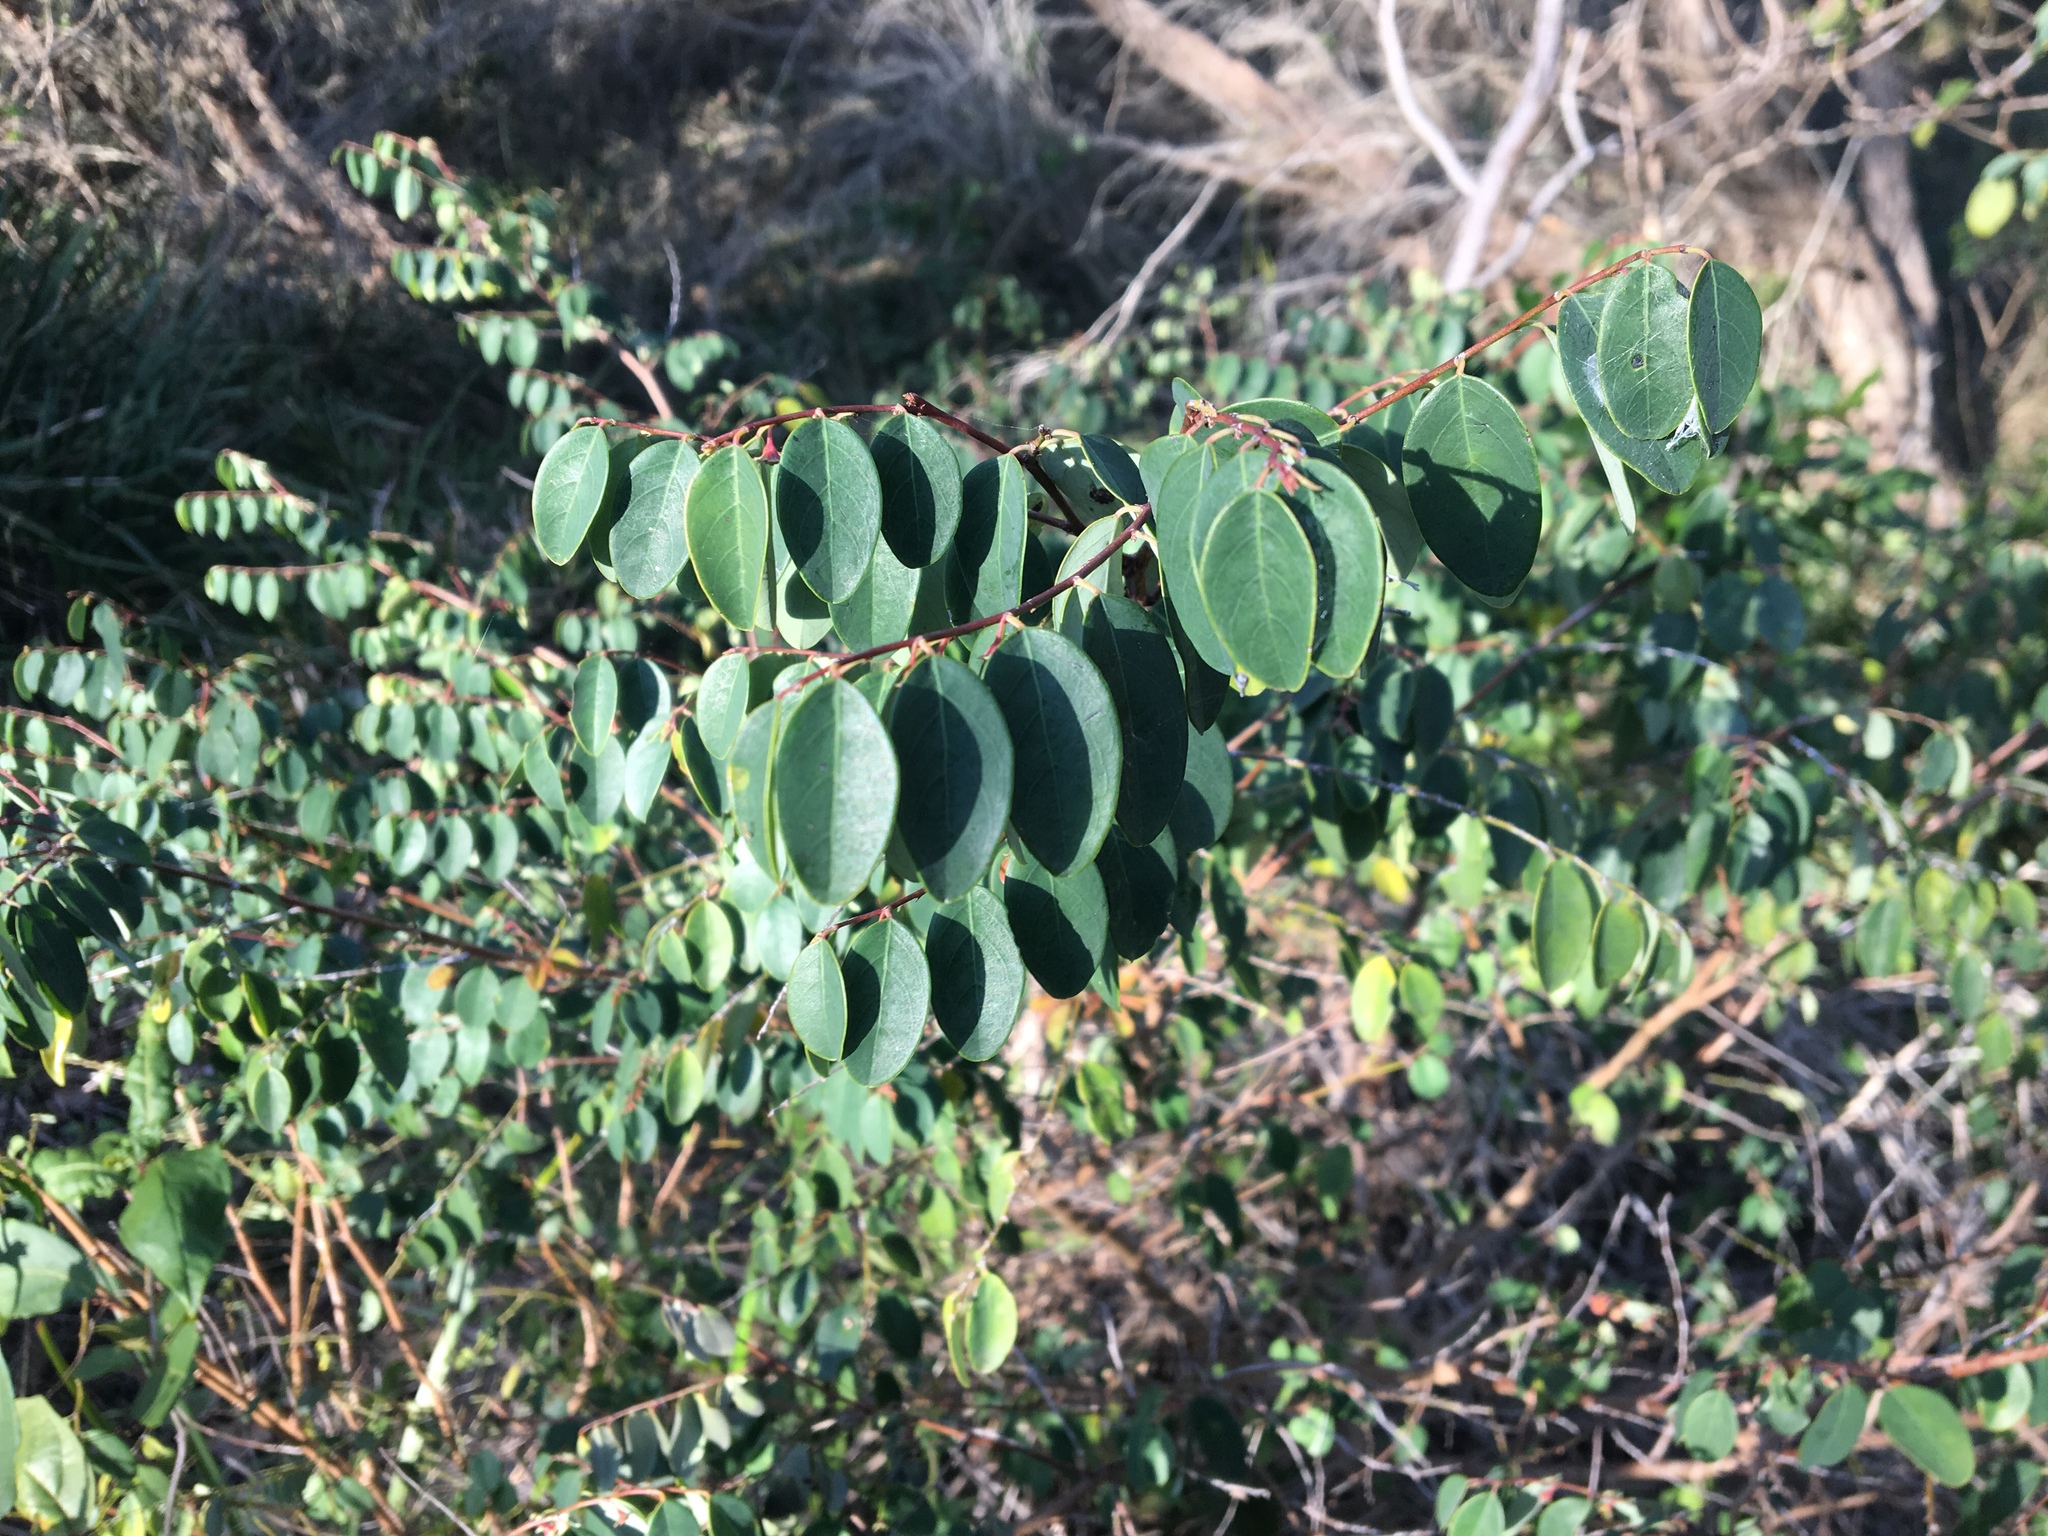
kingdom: Plantae
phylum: Tracheophyta
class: Magnoliopsida
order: Malpighiales
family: Phyllanthaceae
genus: Breynia
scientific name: Breynia oblongifolia
